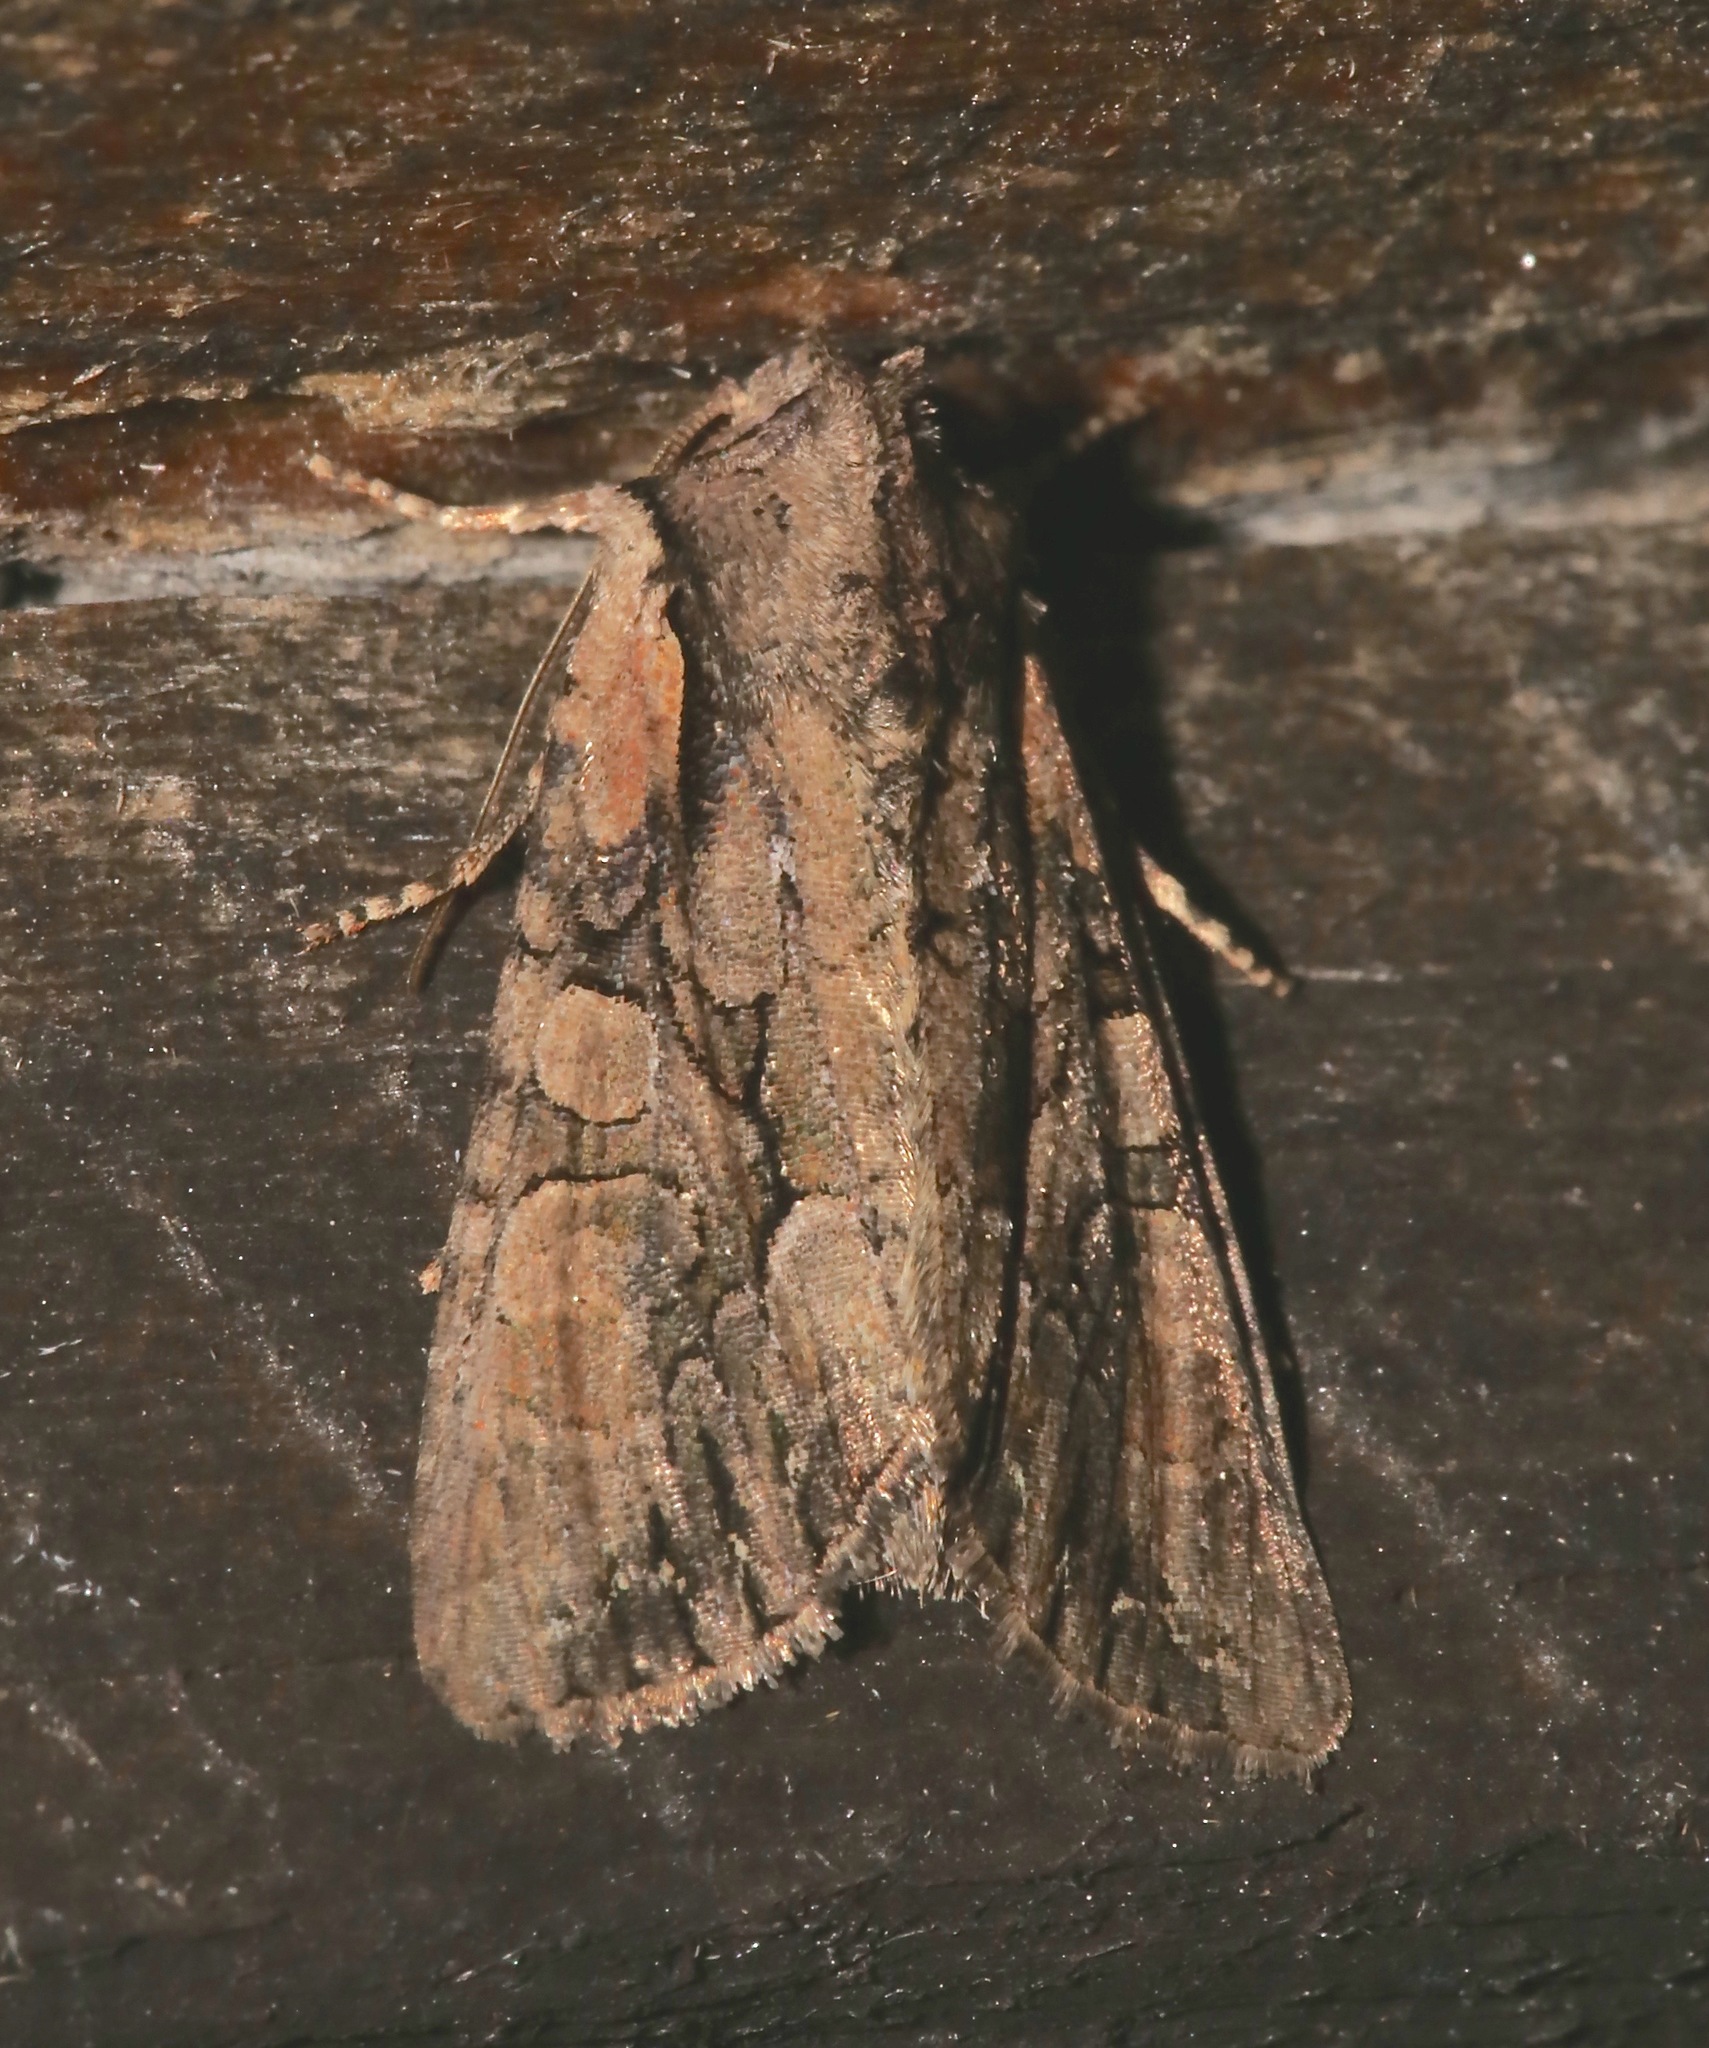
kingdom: Animalia
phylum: Arthropoda
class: Insecta
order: Lepidoptera
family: Noctuidae
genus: Lacanobia
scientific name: Lacanobia subjuncta
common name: Speckled cutworm moth
